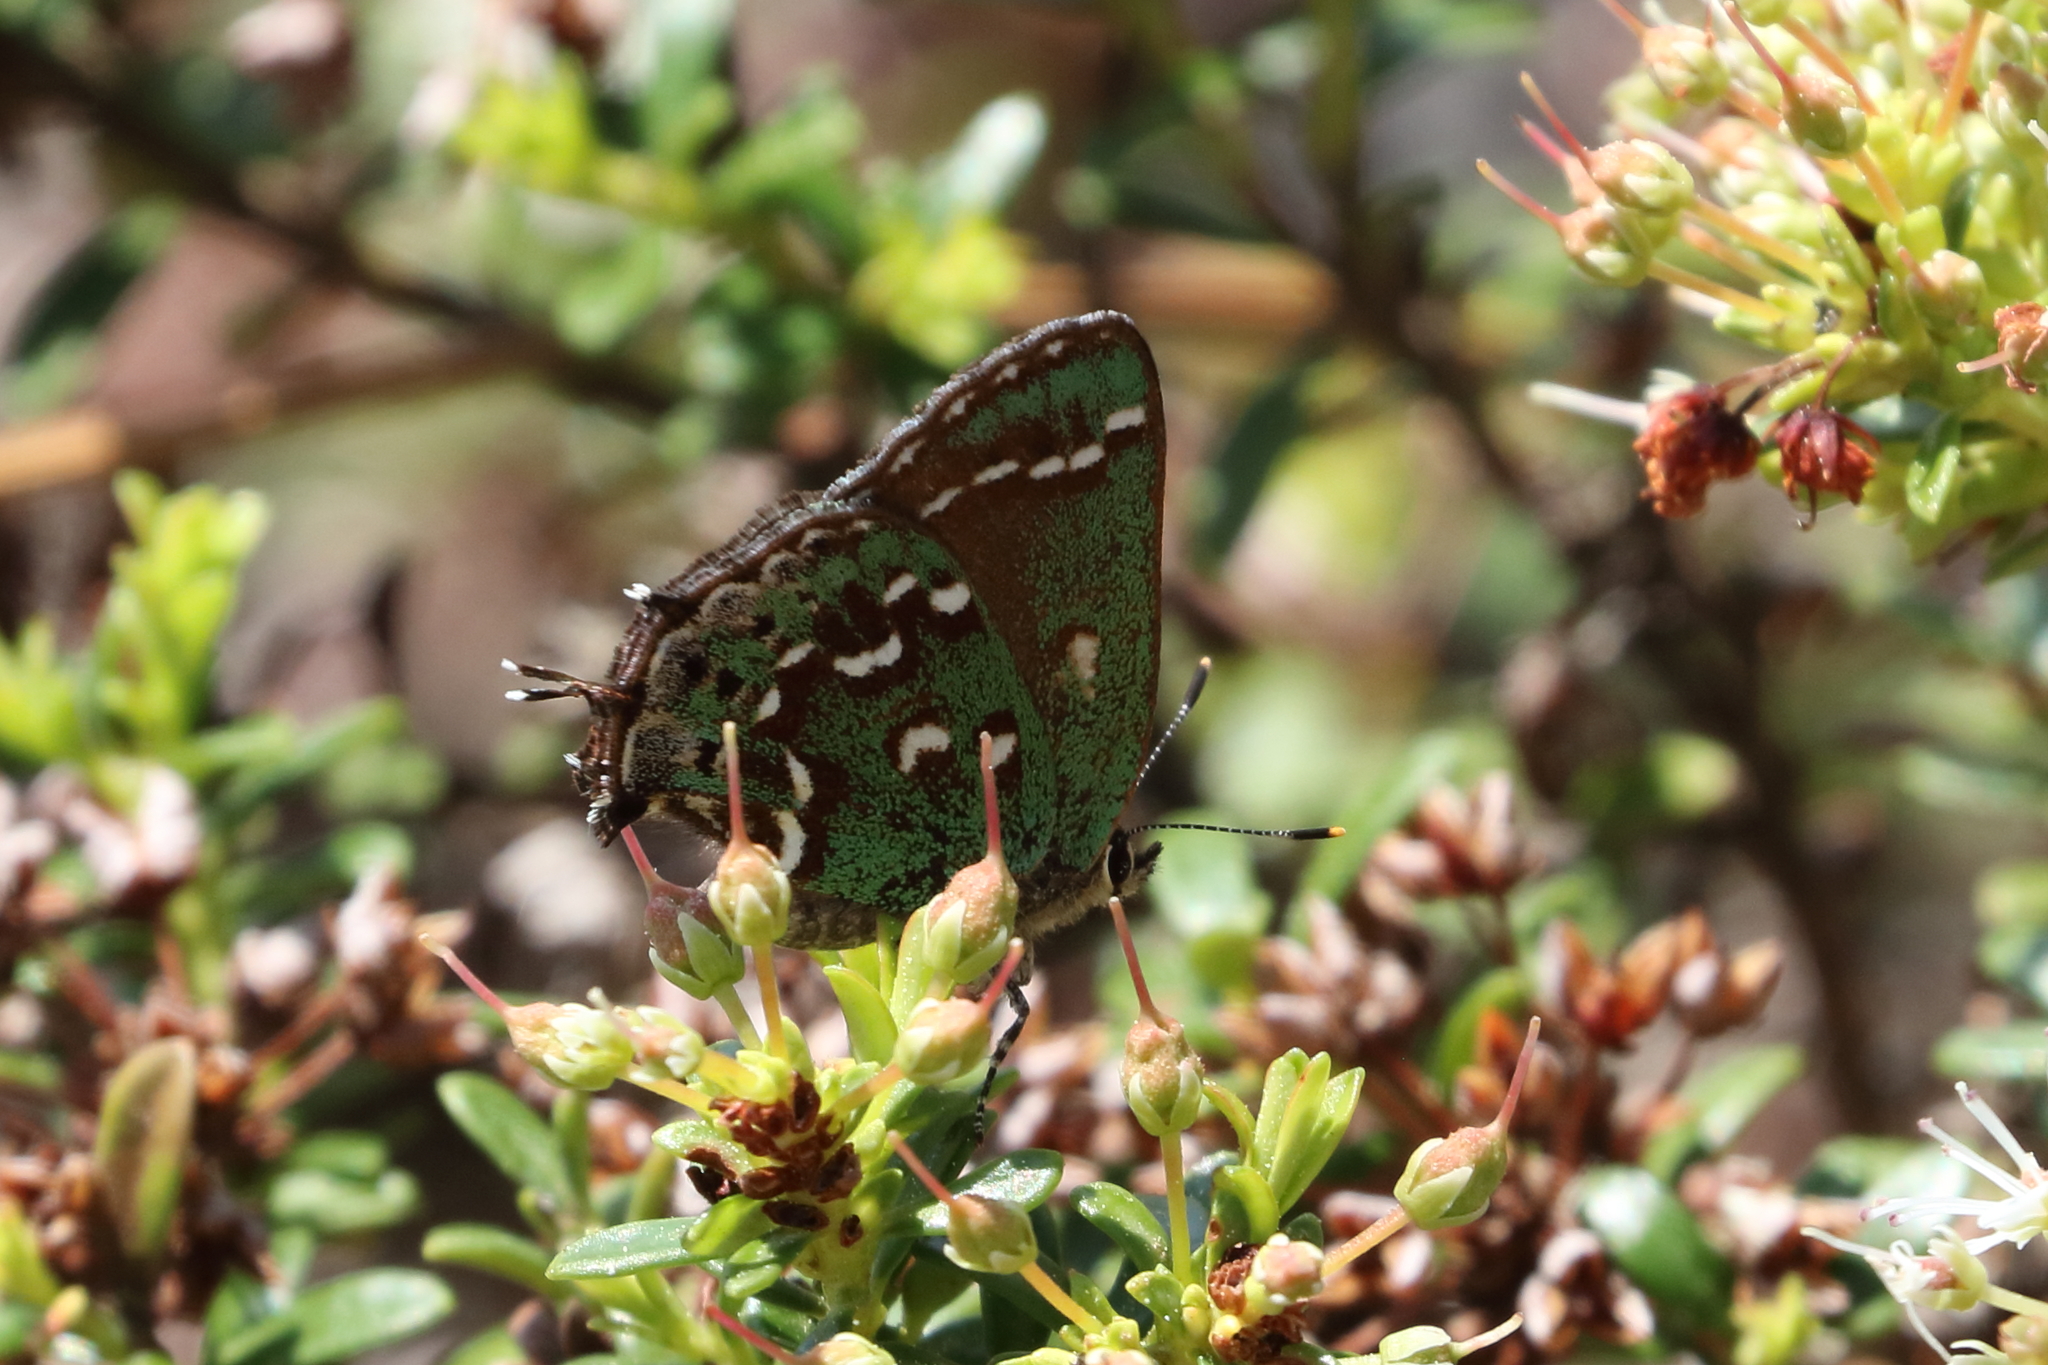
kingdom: Animalia
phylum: Arthropoda
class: Insecta
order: Lepidoptera
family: Lycaenidae
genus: Mitoura
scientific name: Mitoura hesseli
